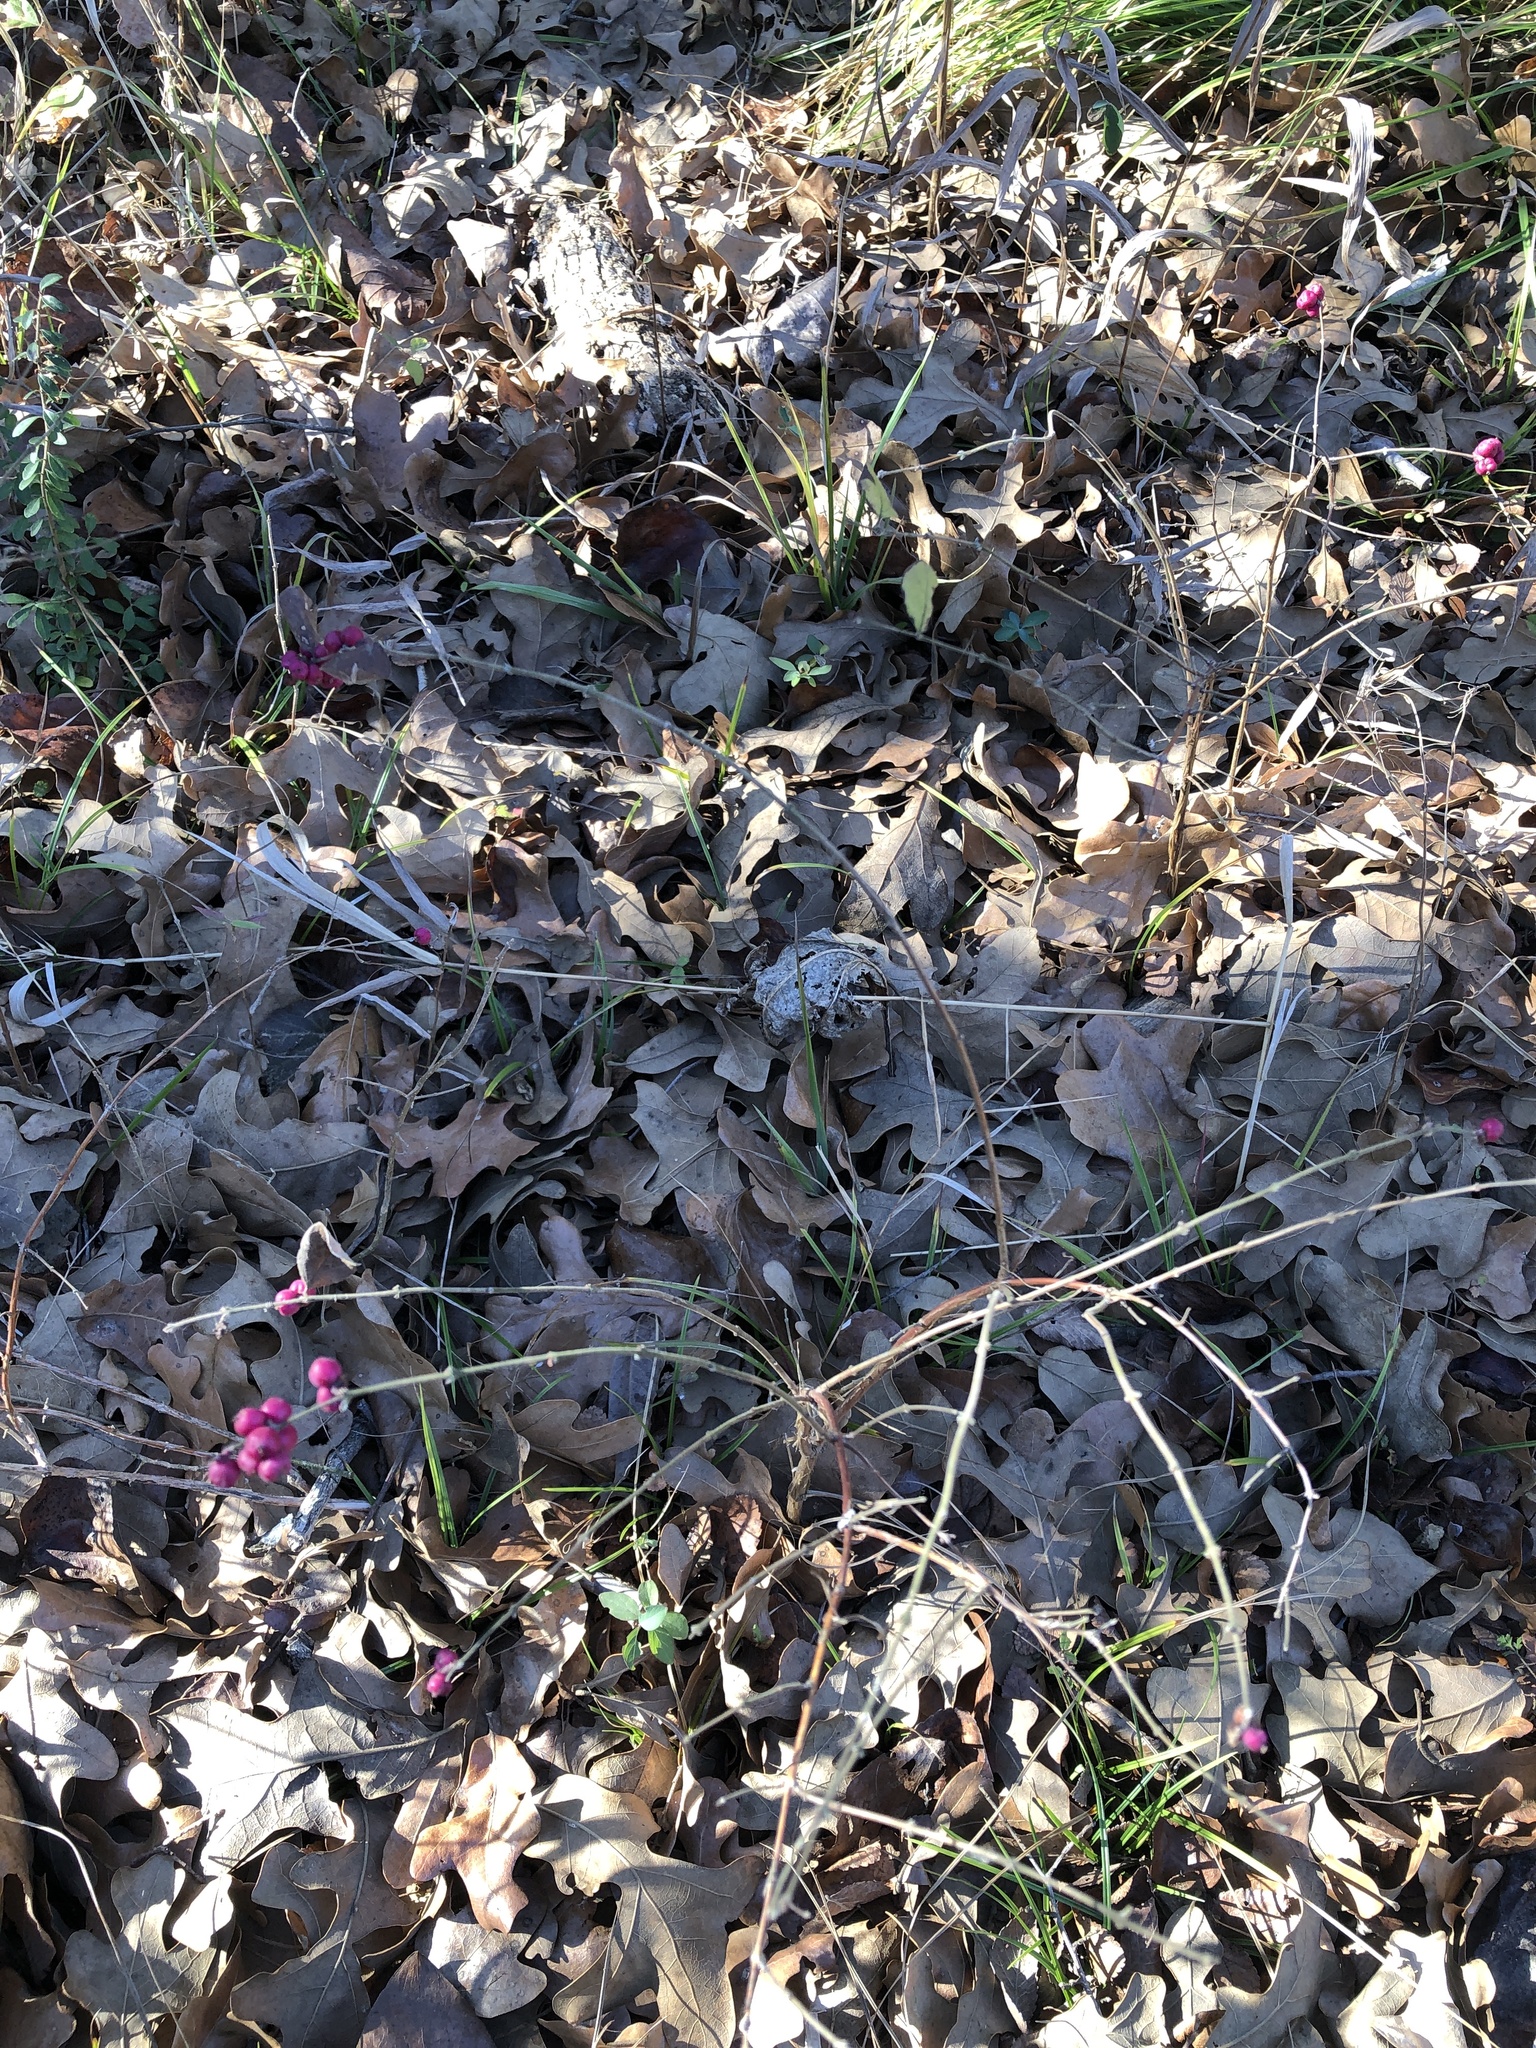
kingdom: Plantae
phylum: Tracheophyta
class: Magnoliopsida
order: Dipsacales
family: Caprifoliaceae
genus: Symphoricarpos
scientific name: Symphoricarpos orbiculatus
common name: Coralberry
